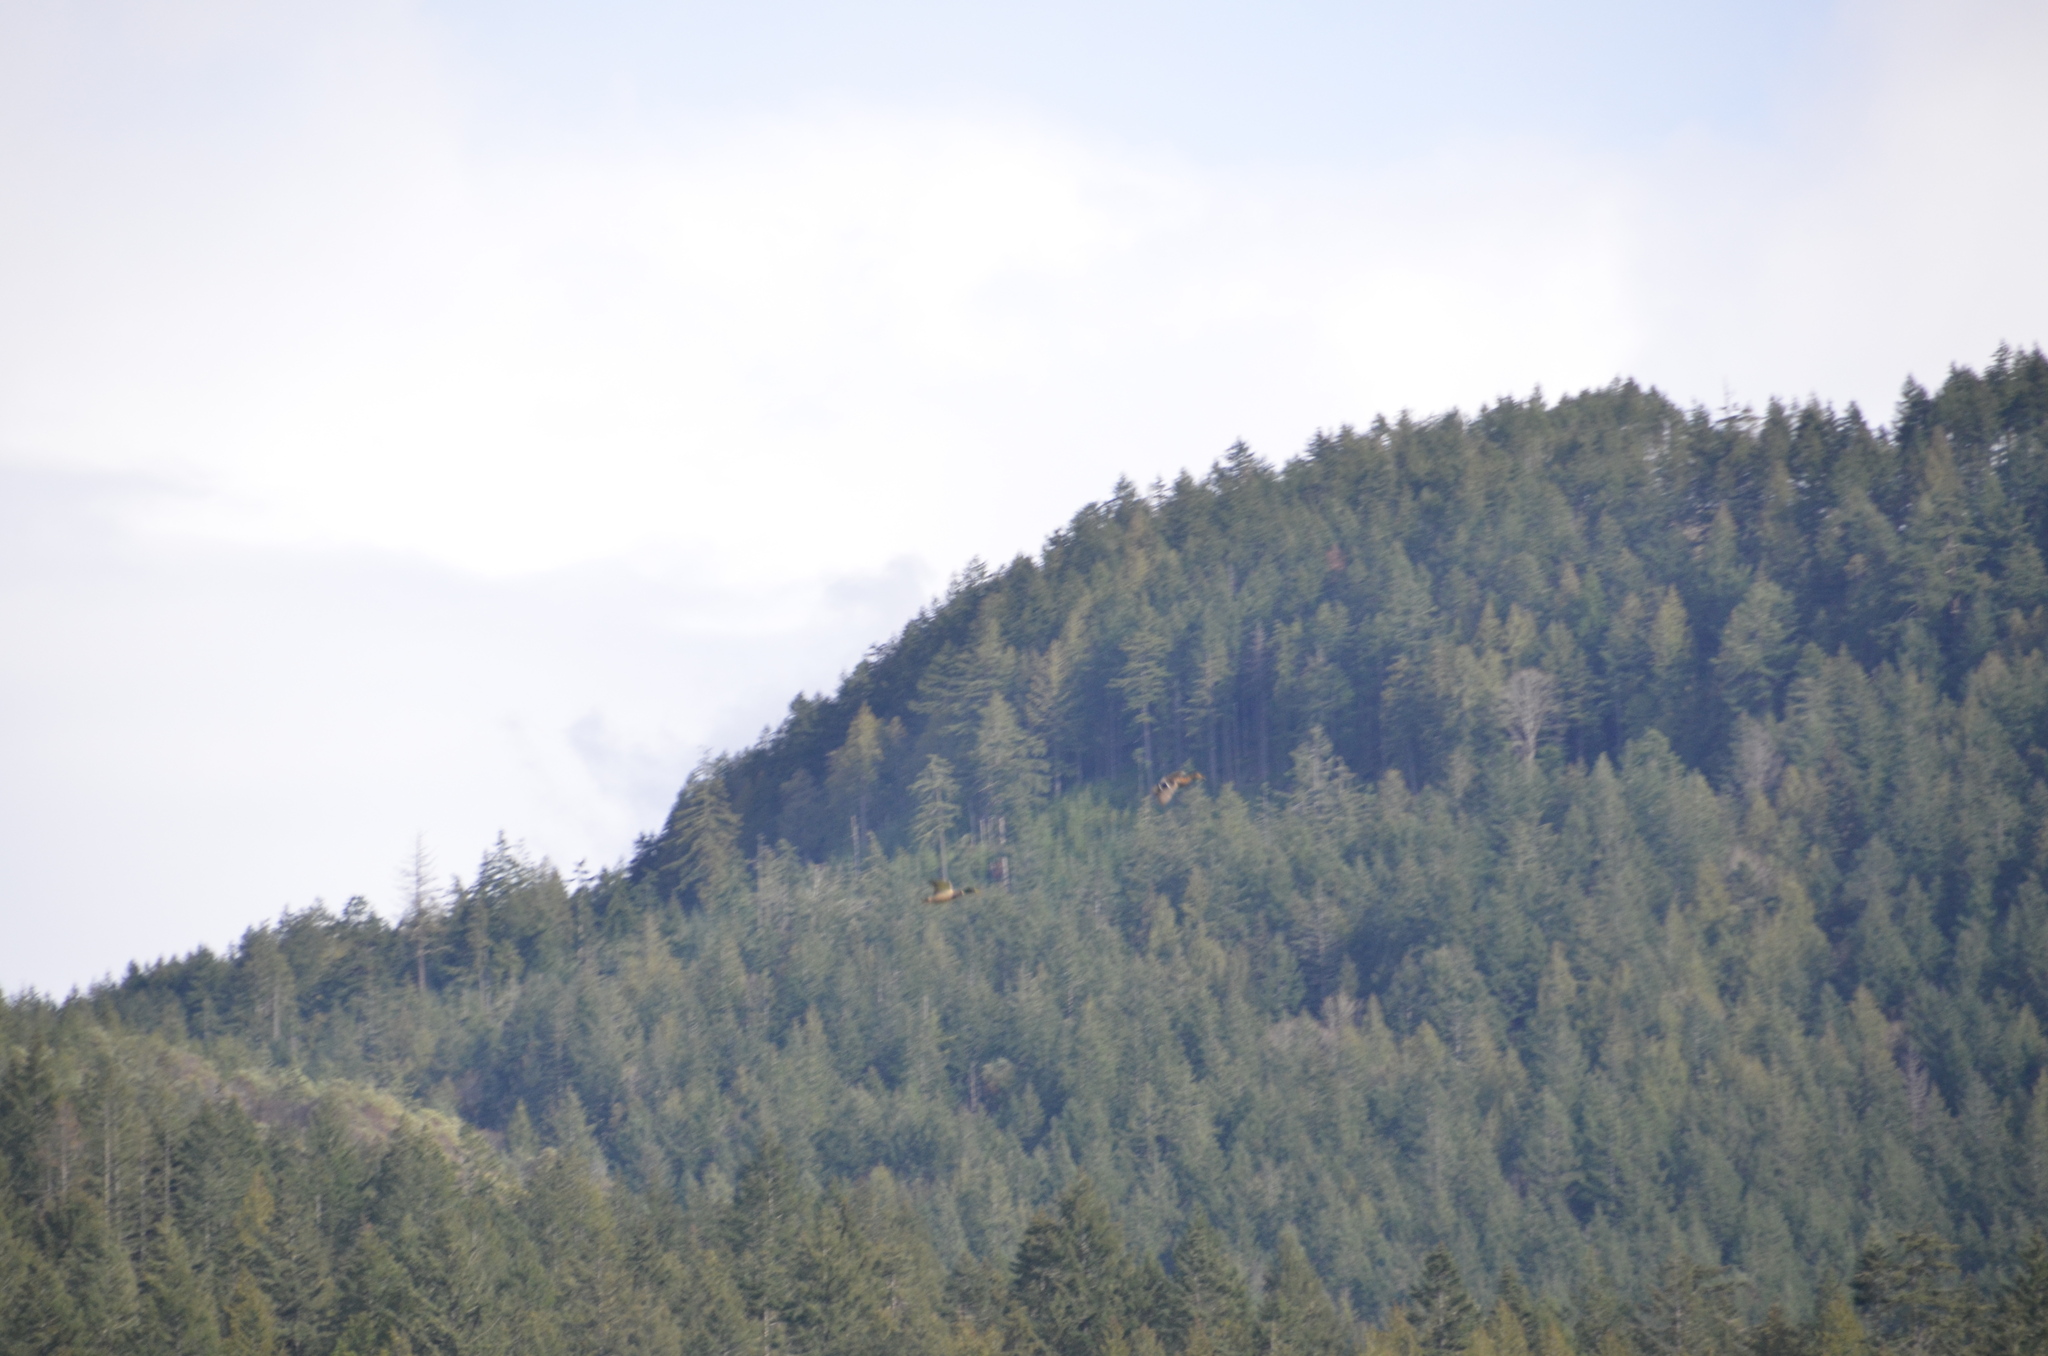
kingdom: Animalia
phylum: Chordata
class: Aves
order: Anseriformes
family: Anatidae
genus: Anas
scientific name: Anas platyrhynchos
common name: Mallard
